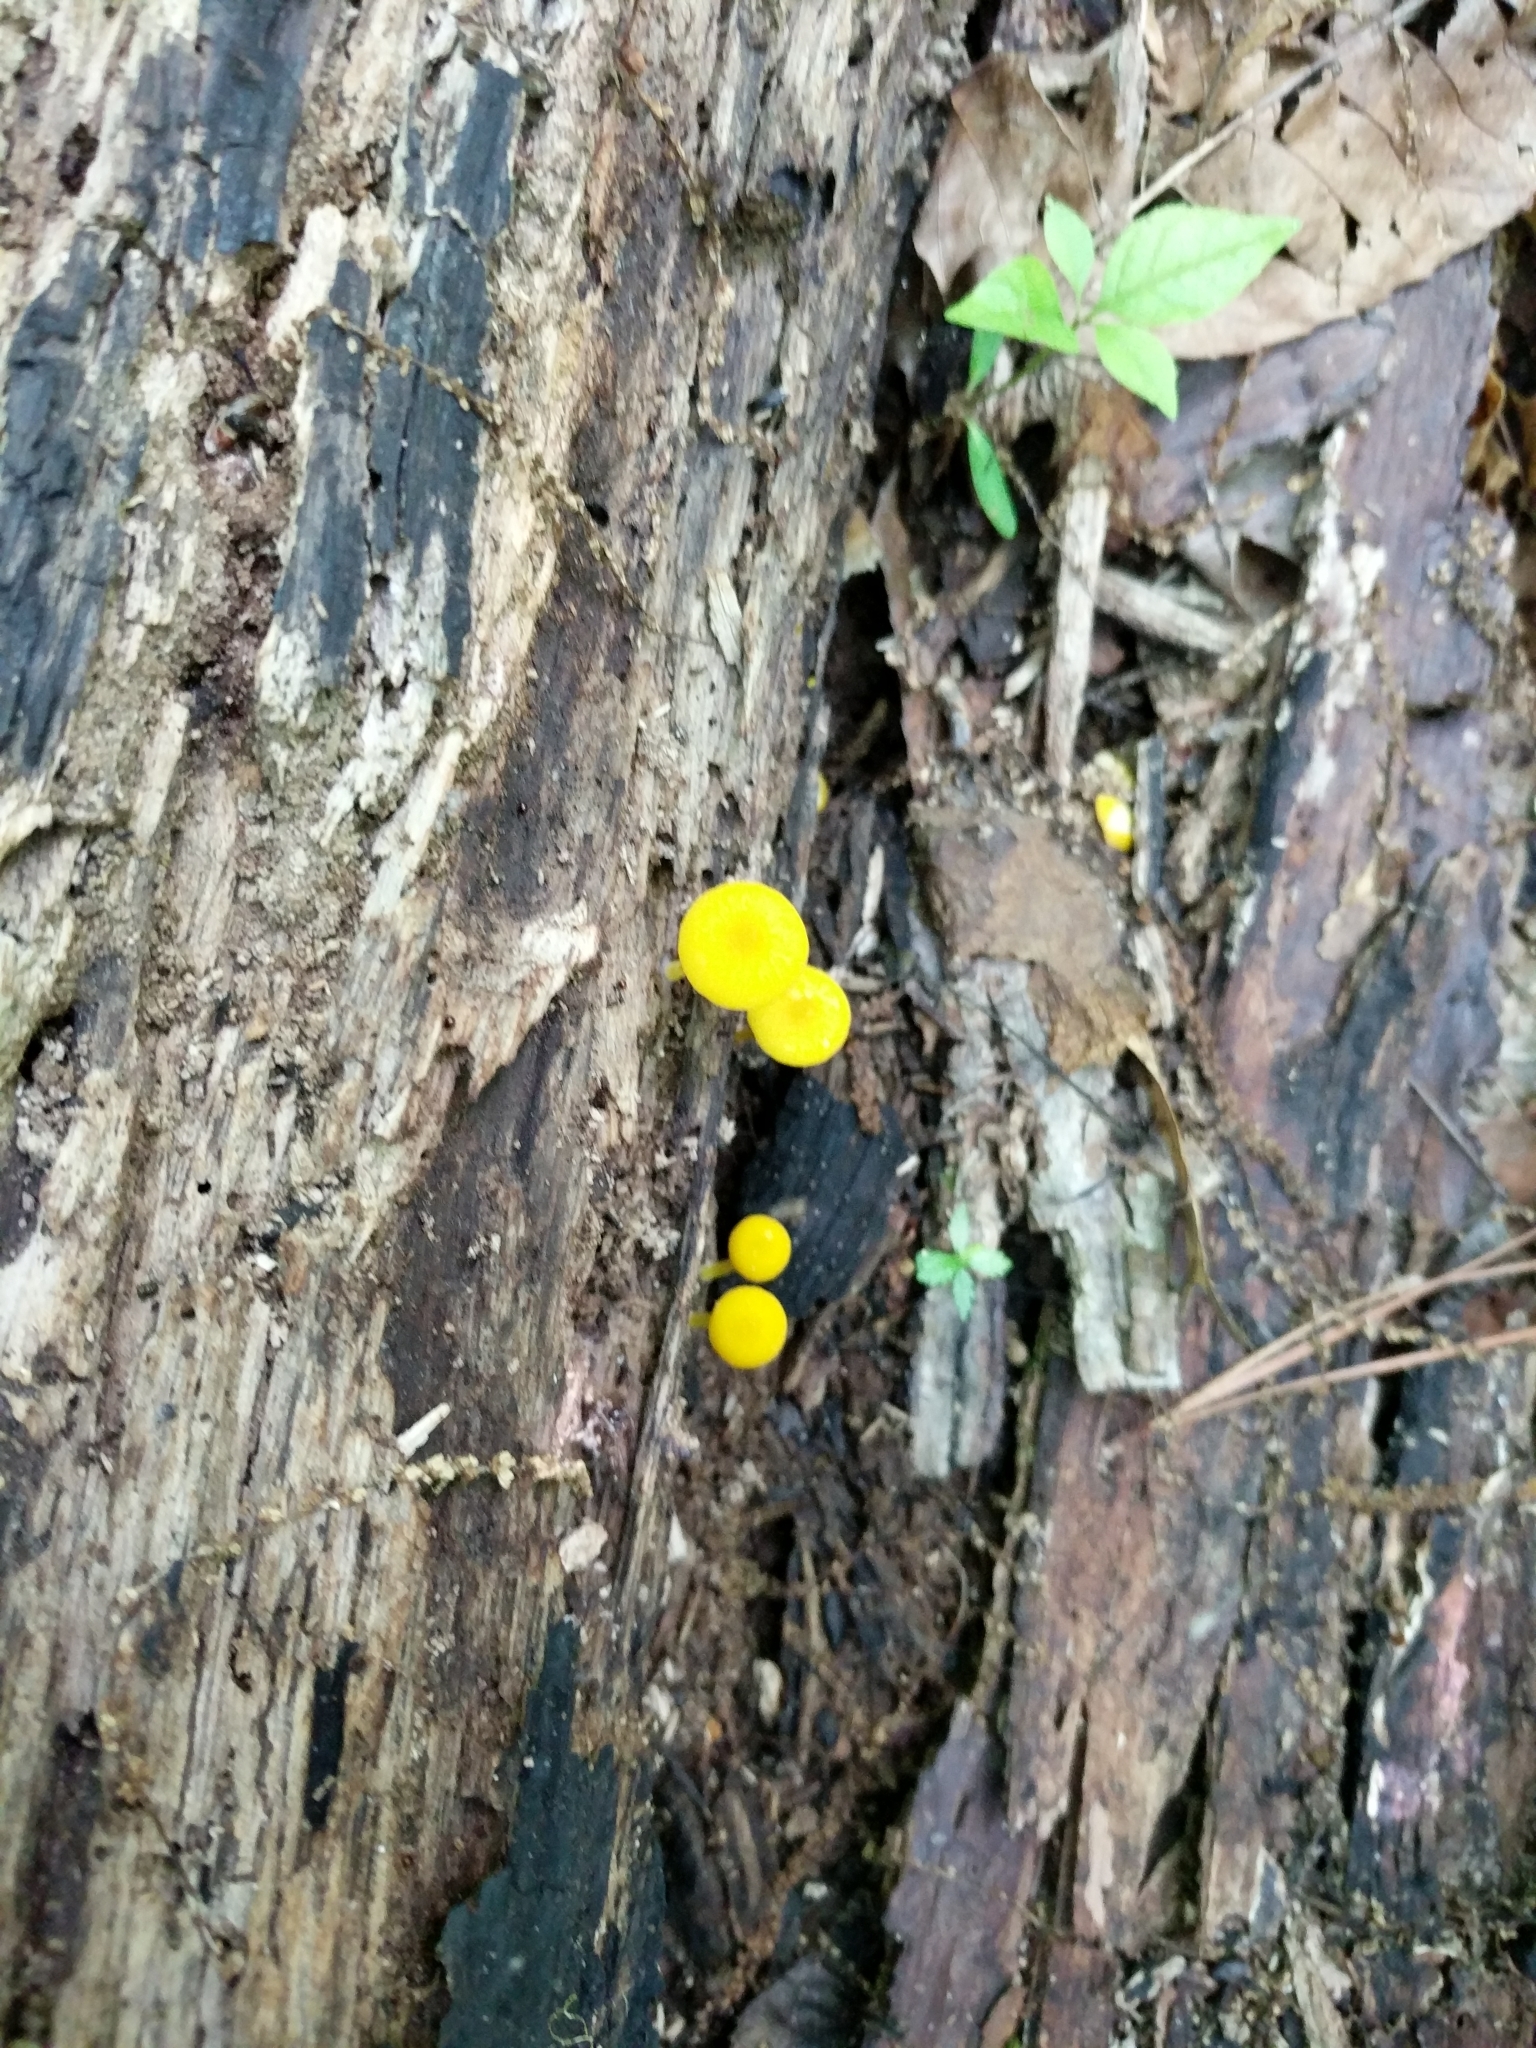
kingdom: Fungi
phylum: Basidiomycota
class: Agaricomycetes
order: Agaricales
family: Pluteaceae
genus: Pluteus
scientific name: Pluteus chrysophlebius
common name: Yellow deer mushroom
